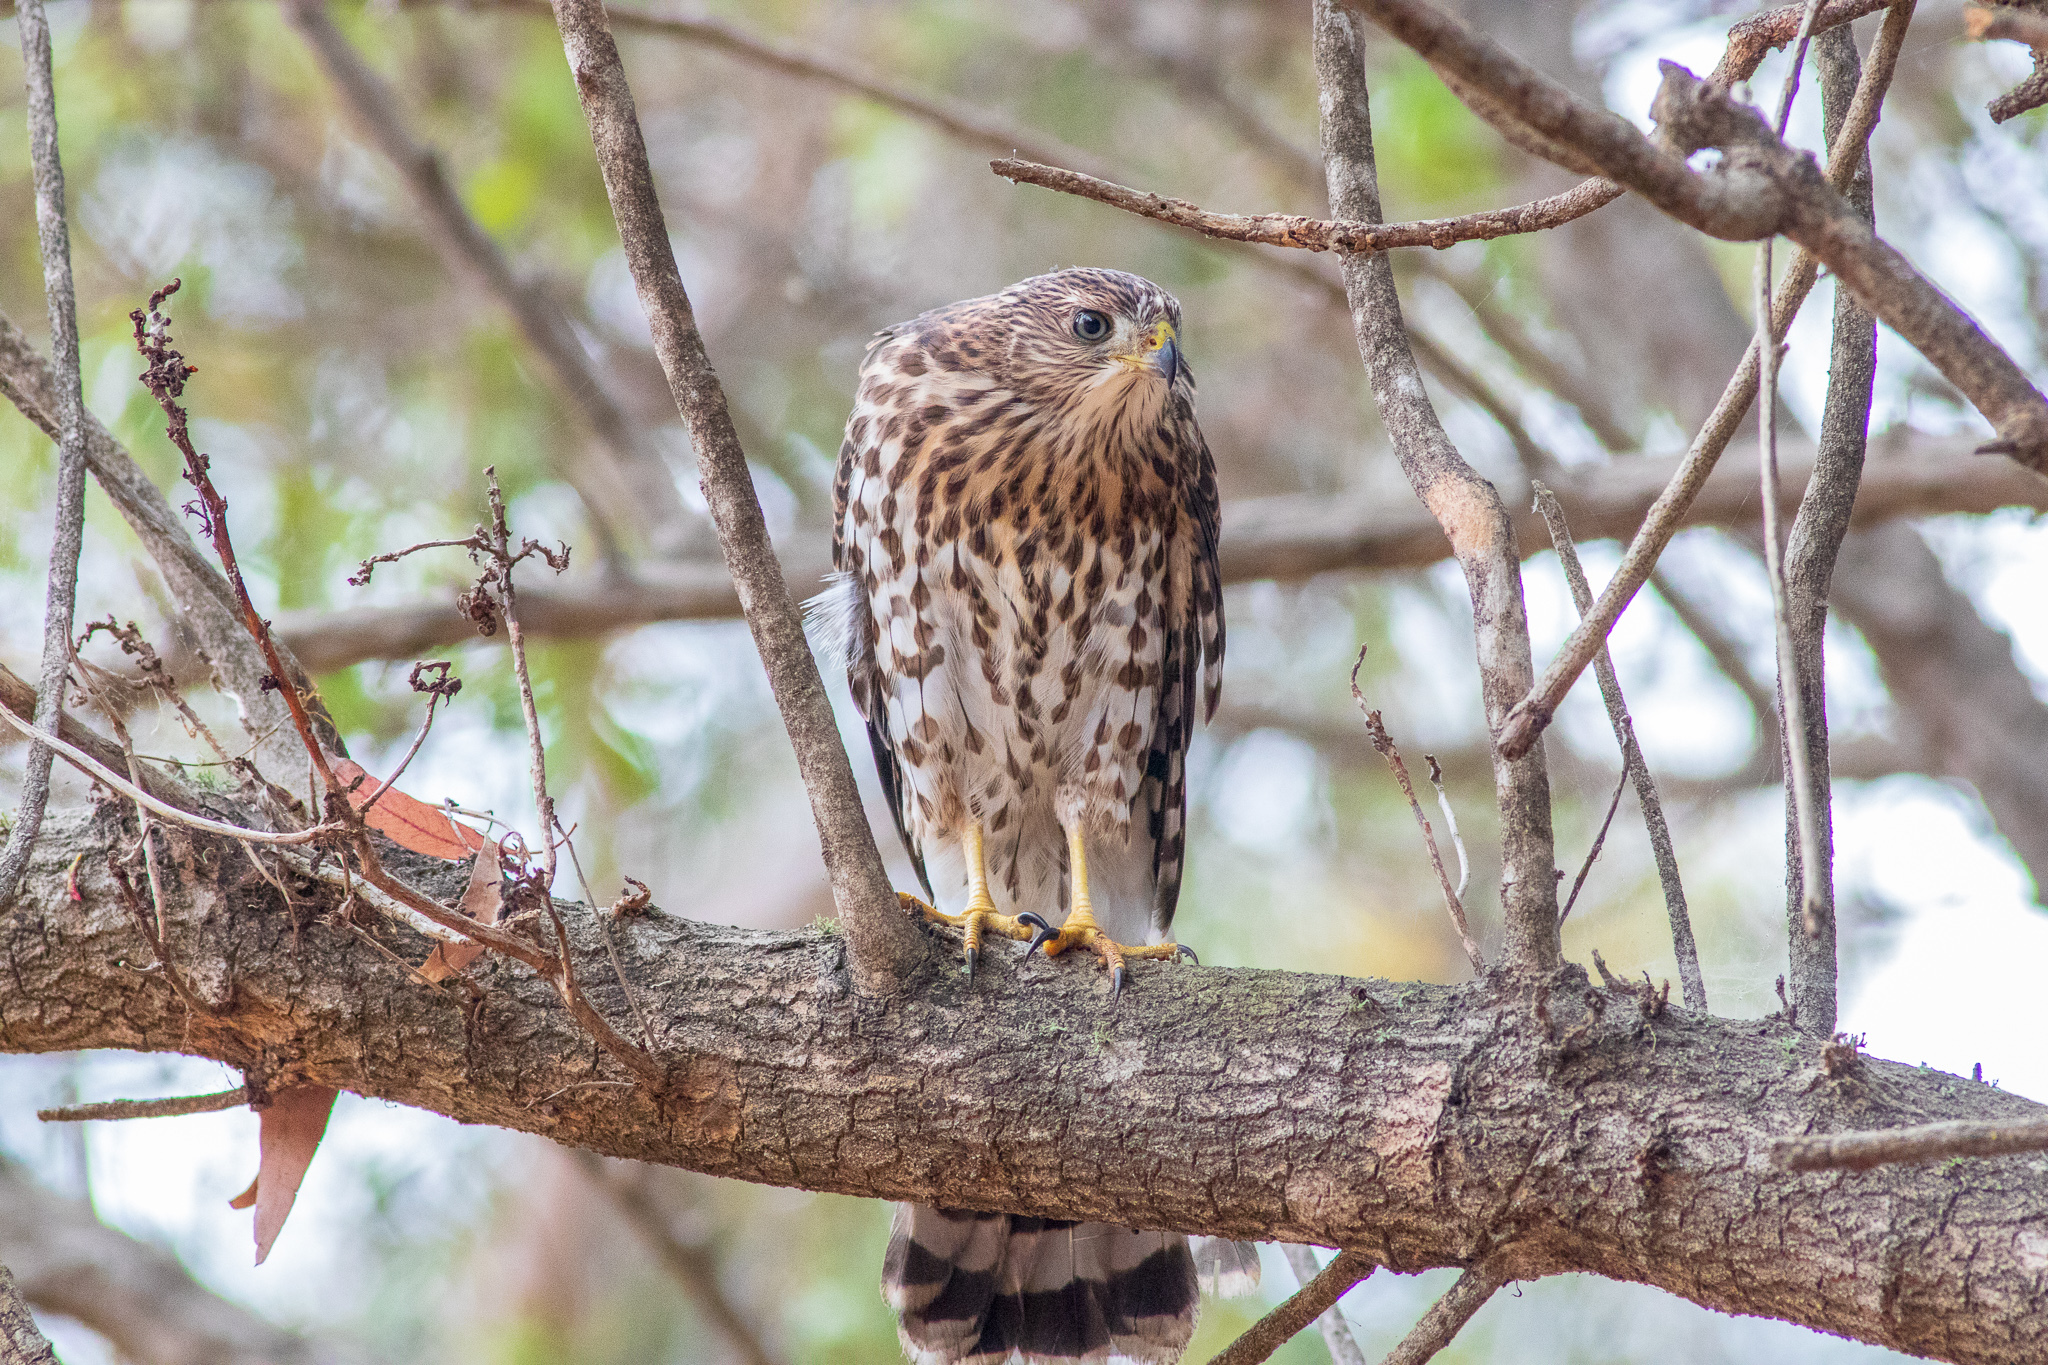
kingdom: Animalia
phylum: Chordata
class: Aves
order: Accipitriformes
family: Accipitridae
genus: Accipiter
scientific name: Accipiter cooperii
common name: Cooper's hawk
